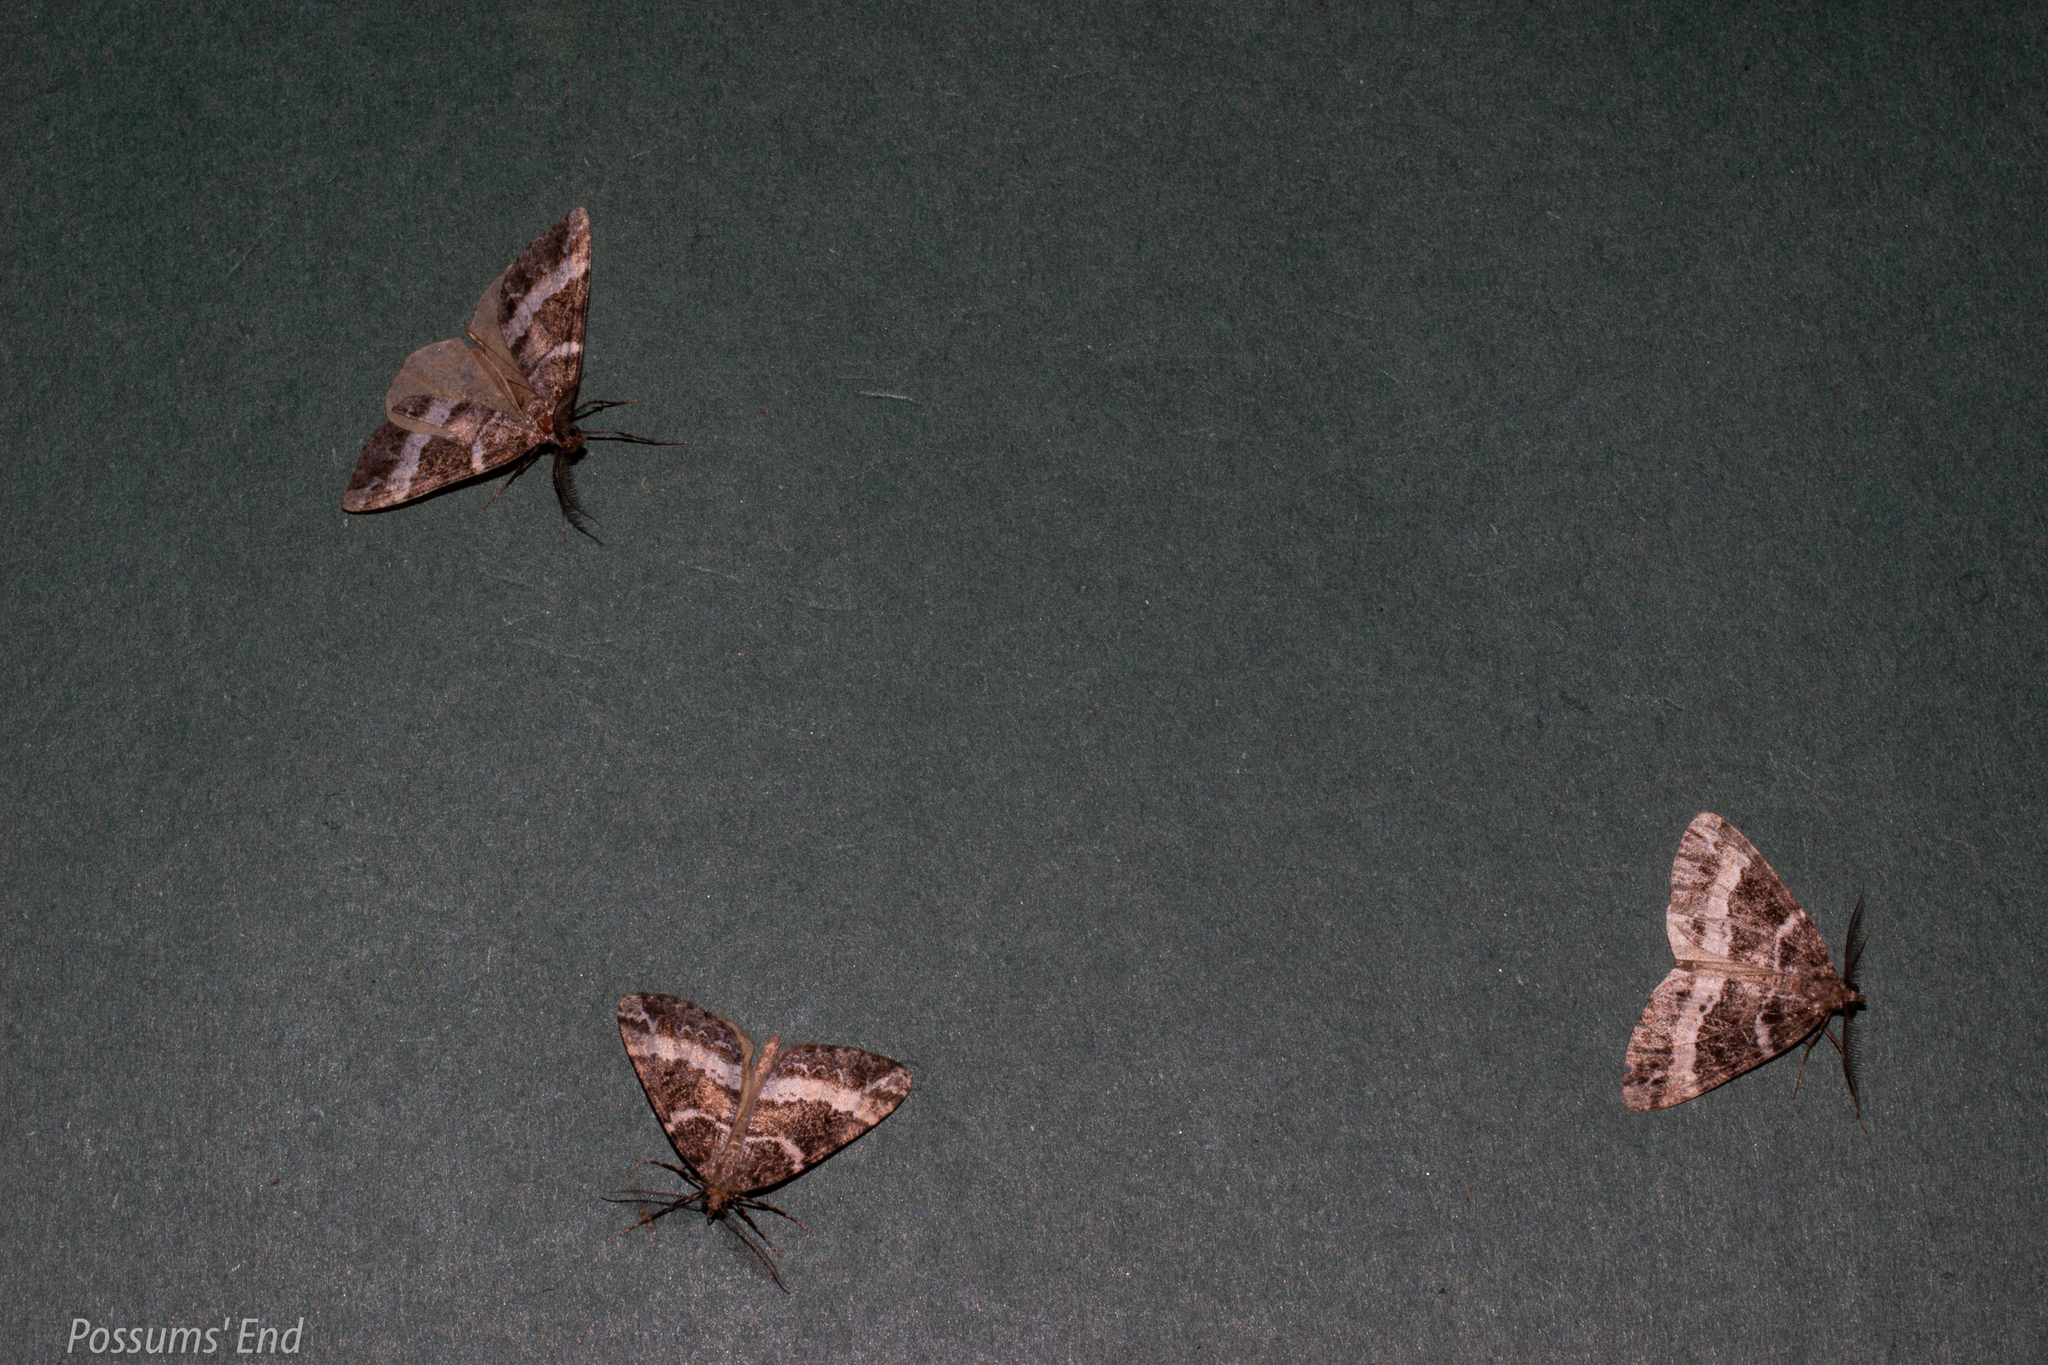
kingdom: Animalia
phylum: Arthropoda
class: Insecta
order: Lepidoptera
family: Geometridae
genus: Pseudocoremia
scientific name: Pseudocoremia
